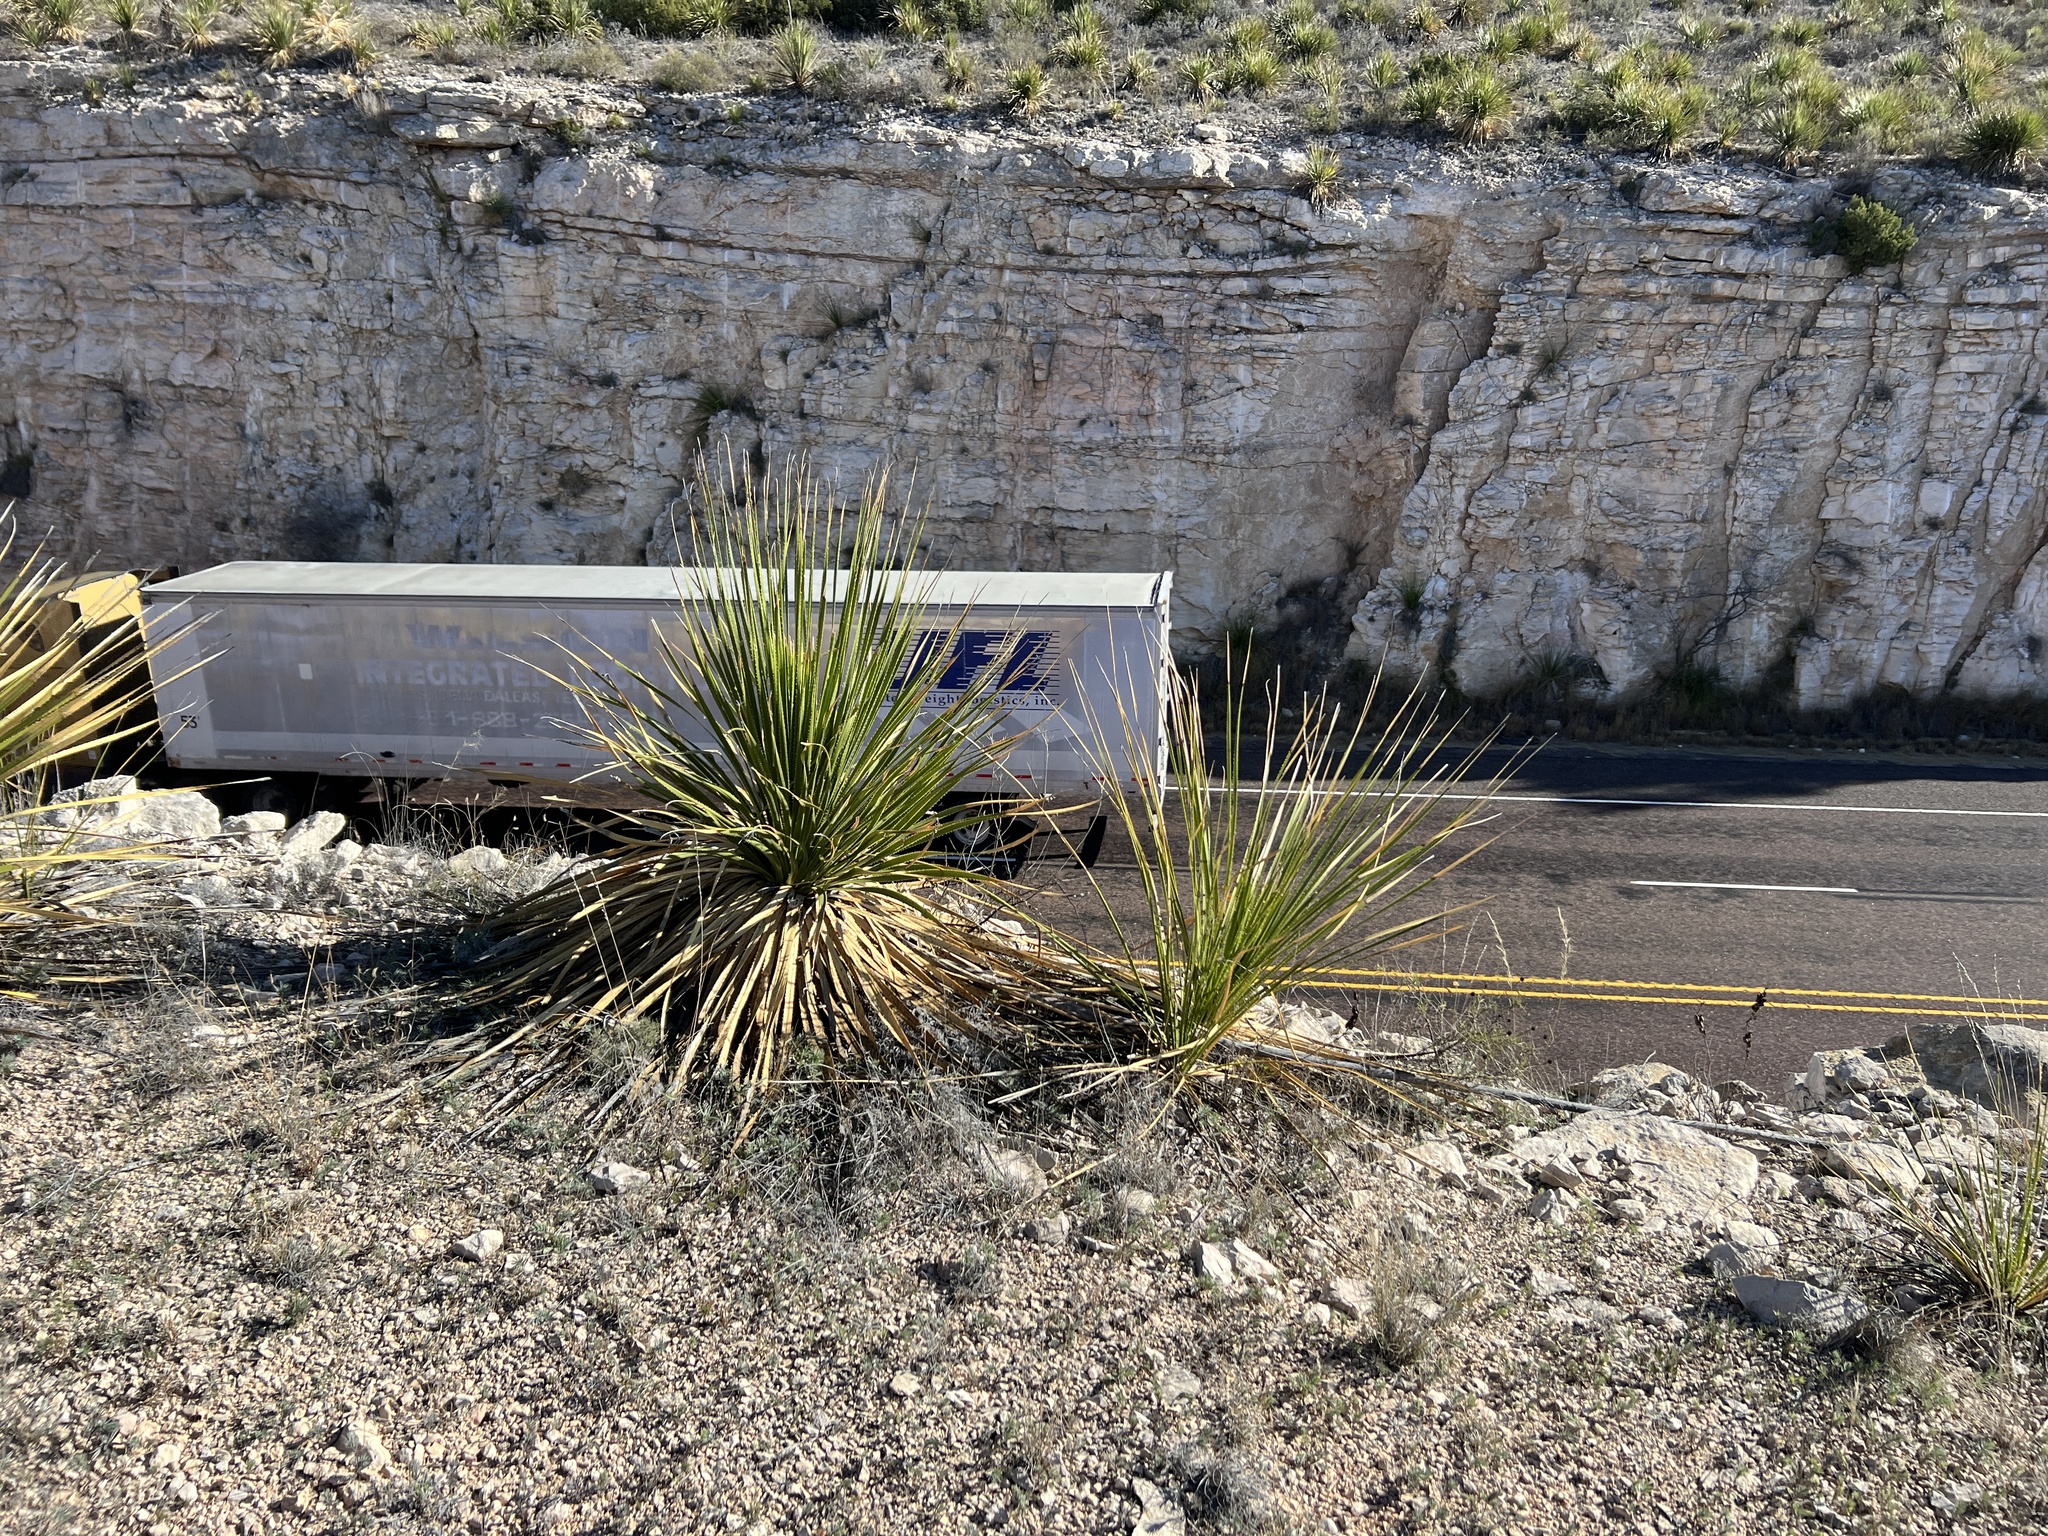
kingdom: Plantae
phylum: Tracheophyta
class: Liliopsida
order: Asparagales
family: Asparagaceae
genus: Dasylirion
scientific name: Dasylirion texanum
